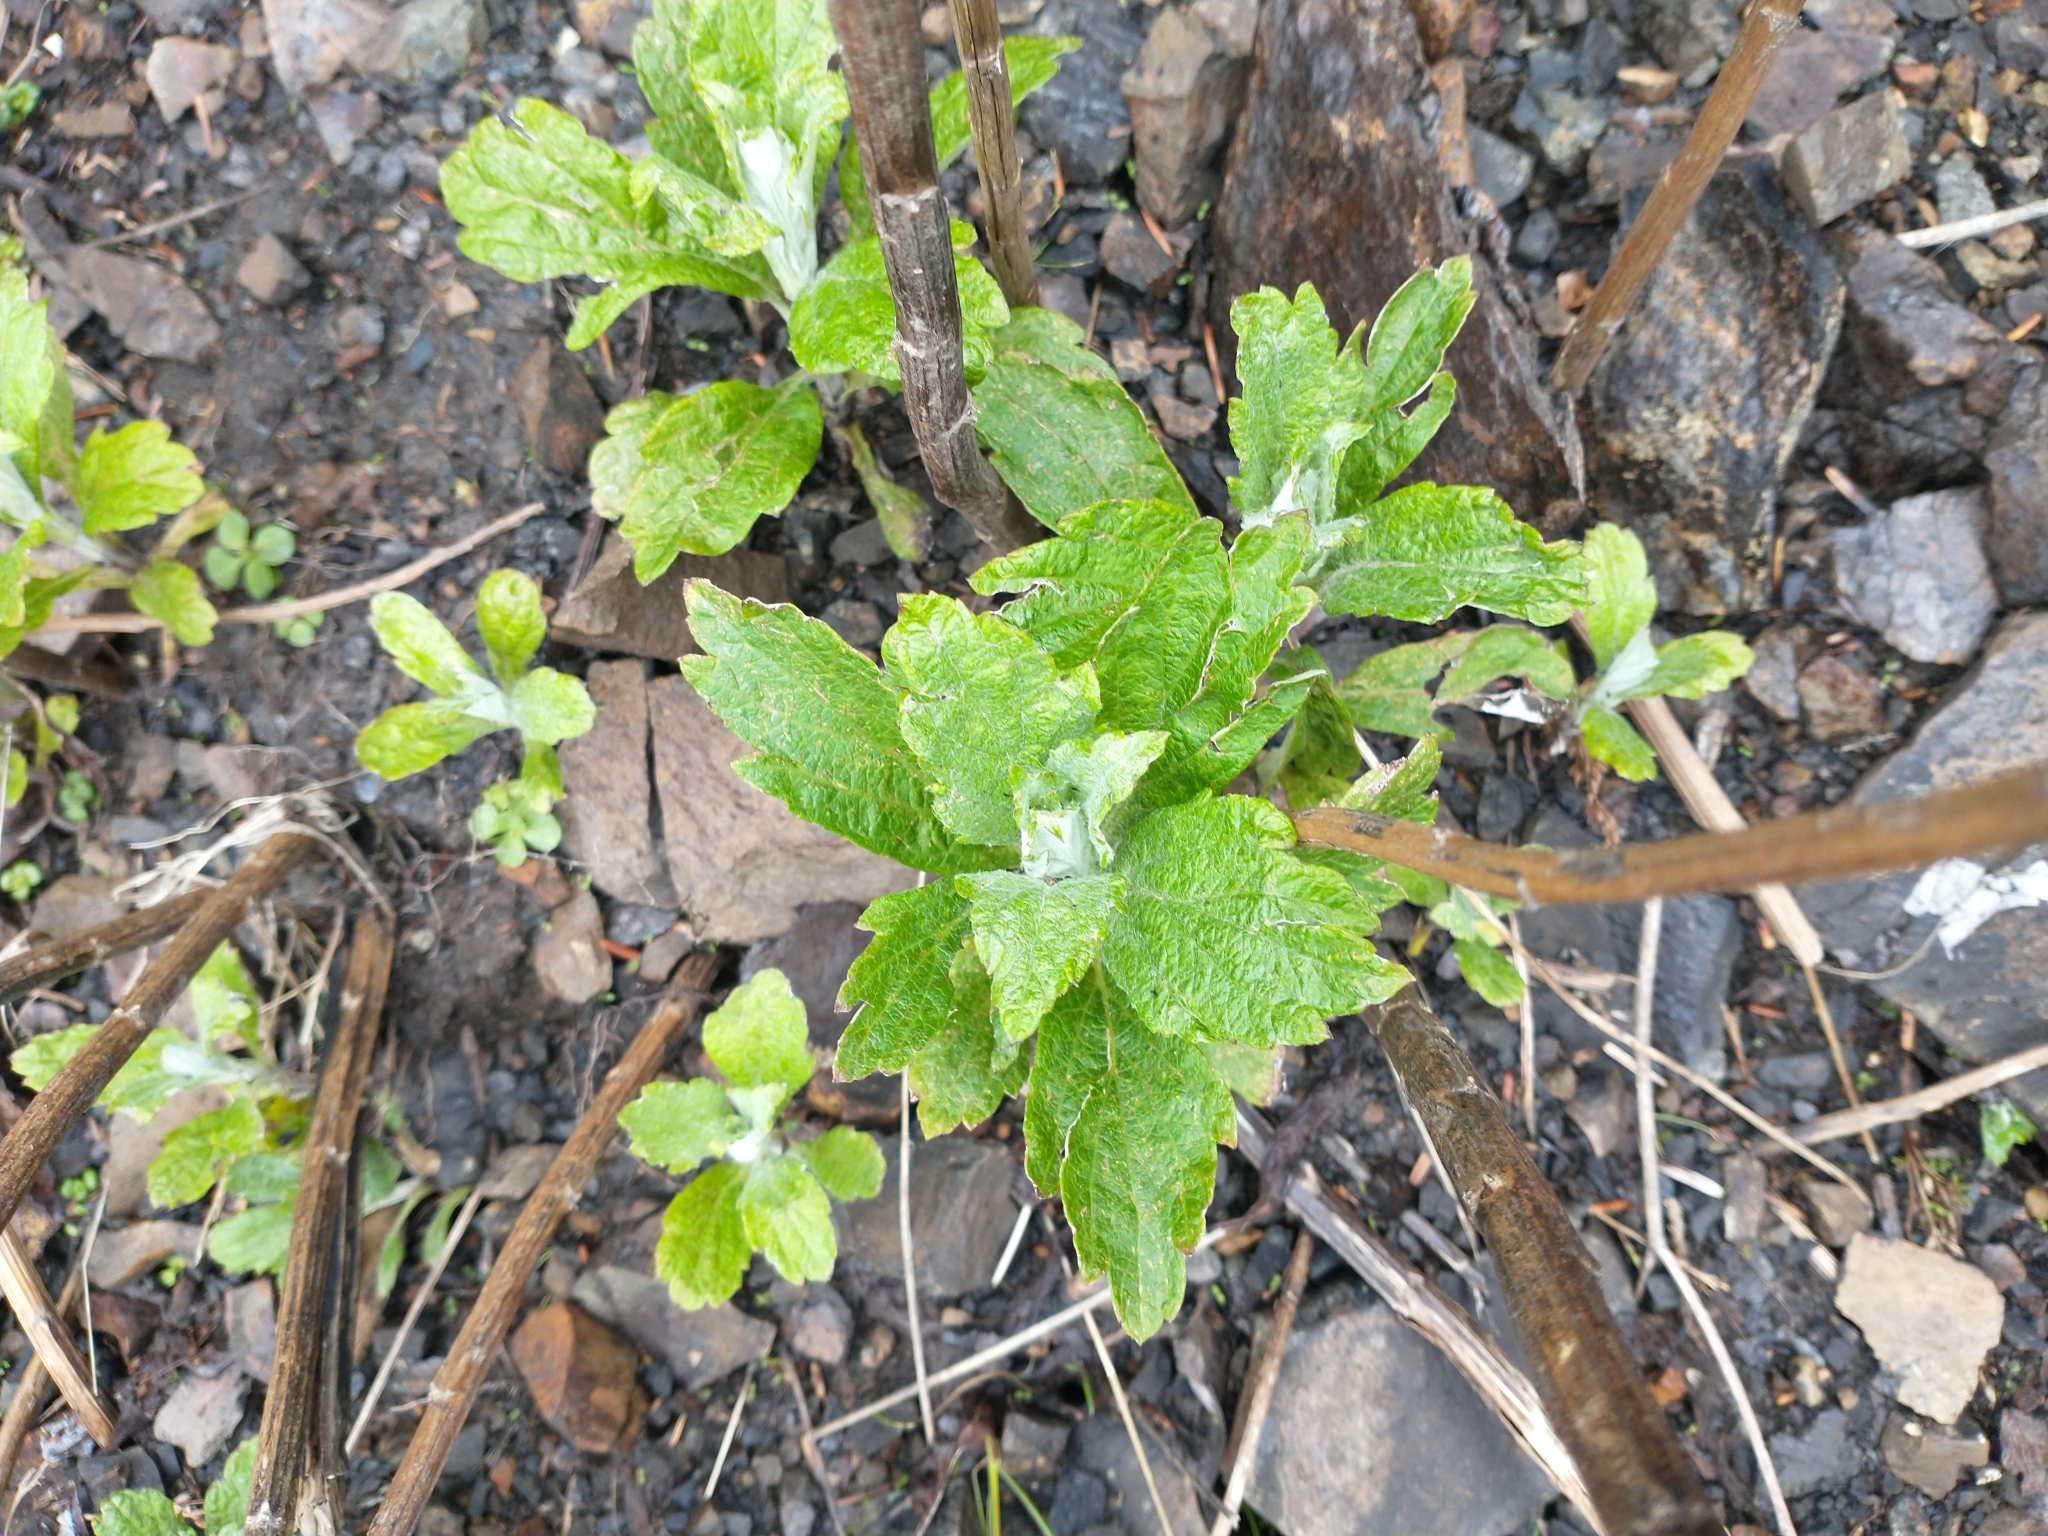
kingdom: Plantae
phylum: Tracheophyta
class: Magnoliopsida
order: Asterales
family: Asteraceae
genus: Artemisia
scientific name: Artemisia suksdorfii
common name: Suksdorf sagewort
